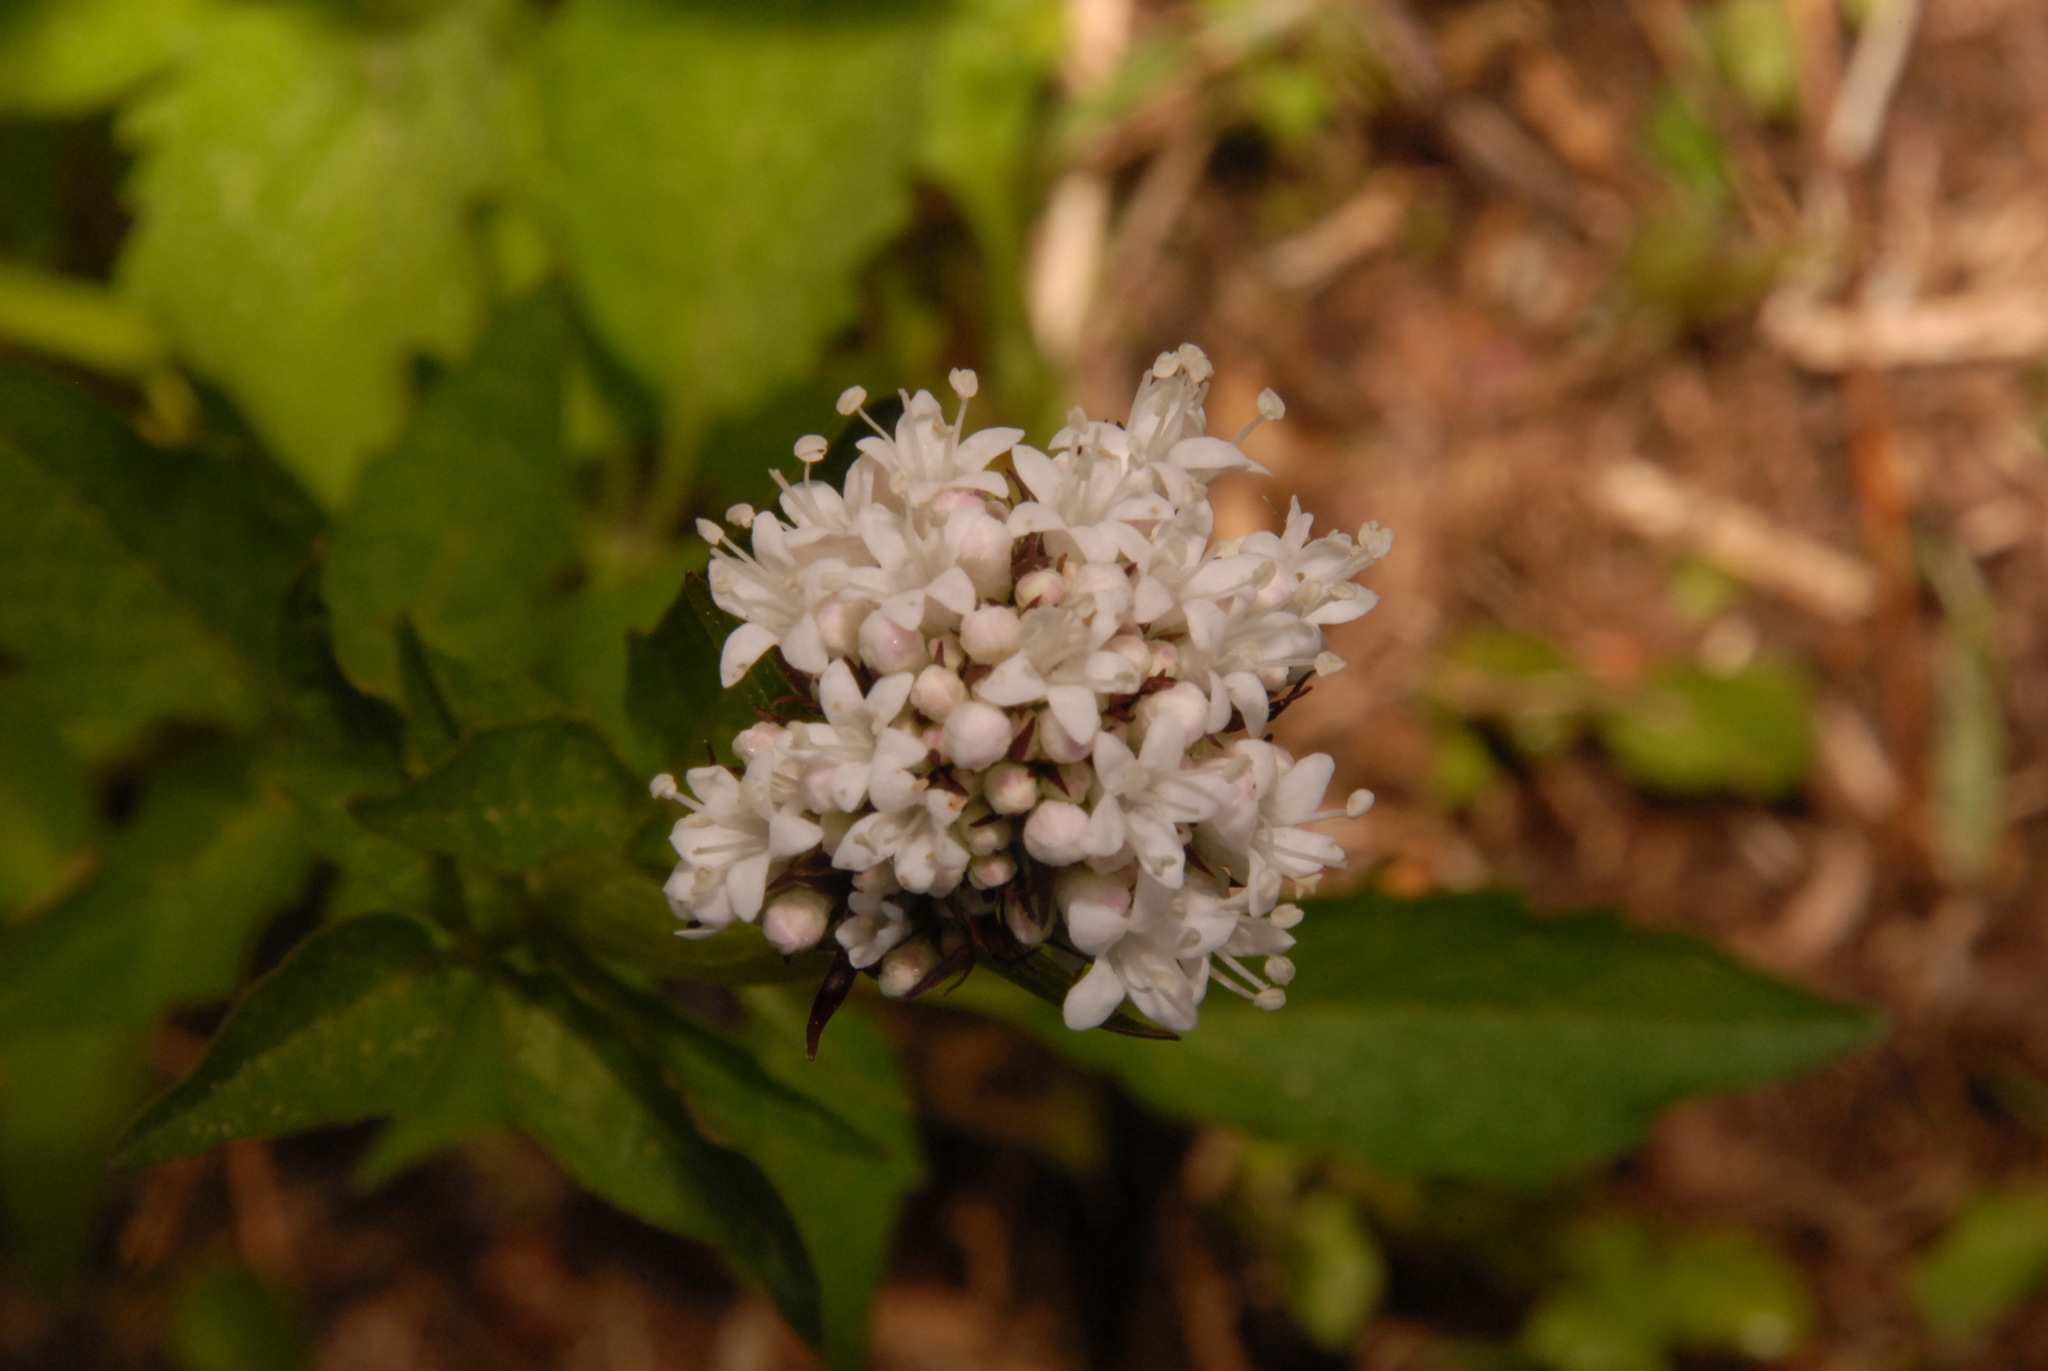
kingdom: Plantae
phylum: Tracheophyta
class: Magnoliopsida
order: Dipsacales
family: Caprifoliaceae
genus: Valeriana
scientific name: Valeriana sitchensis
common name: Pacific valerian
